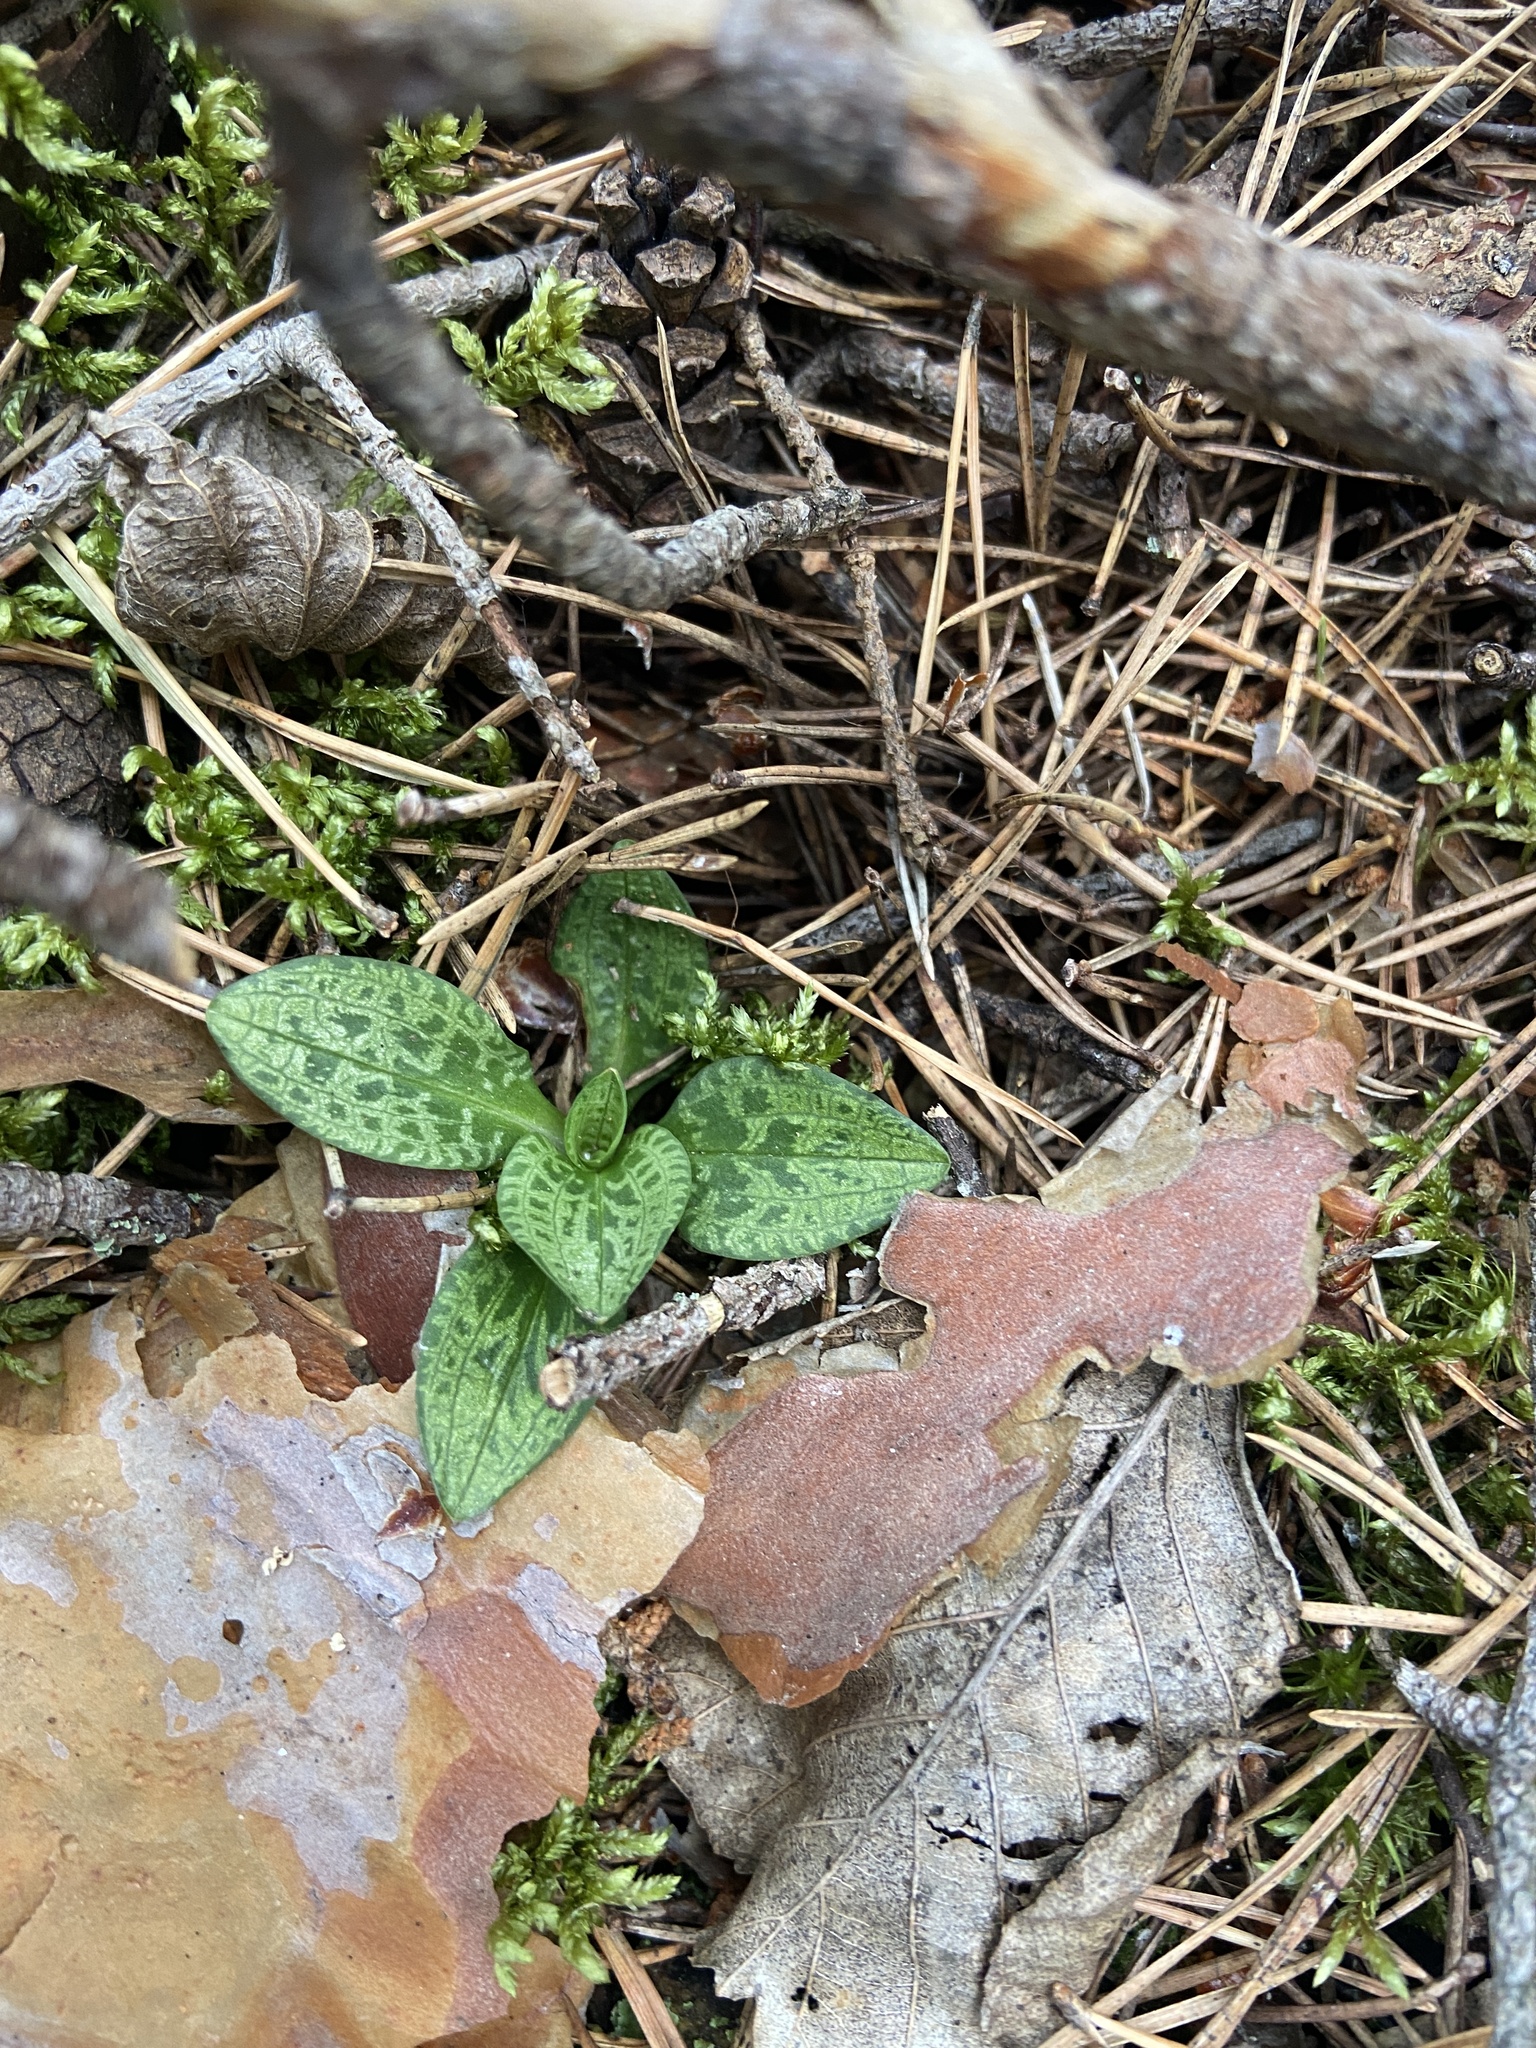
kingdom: Plantae
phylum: Tracheophyta
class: Liliopsida
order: Asparagales
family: Orchidaceae
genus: Goodyera
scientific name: Goodyera repens
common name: Creeping lady's-tresses
